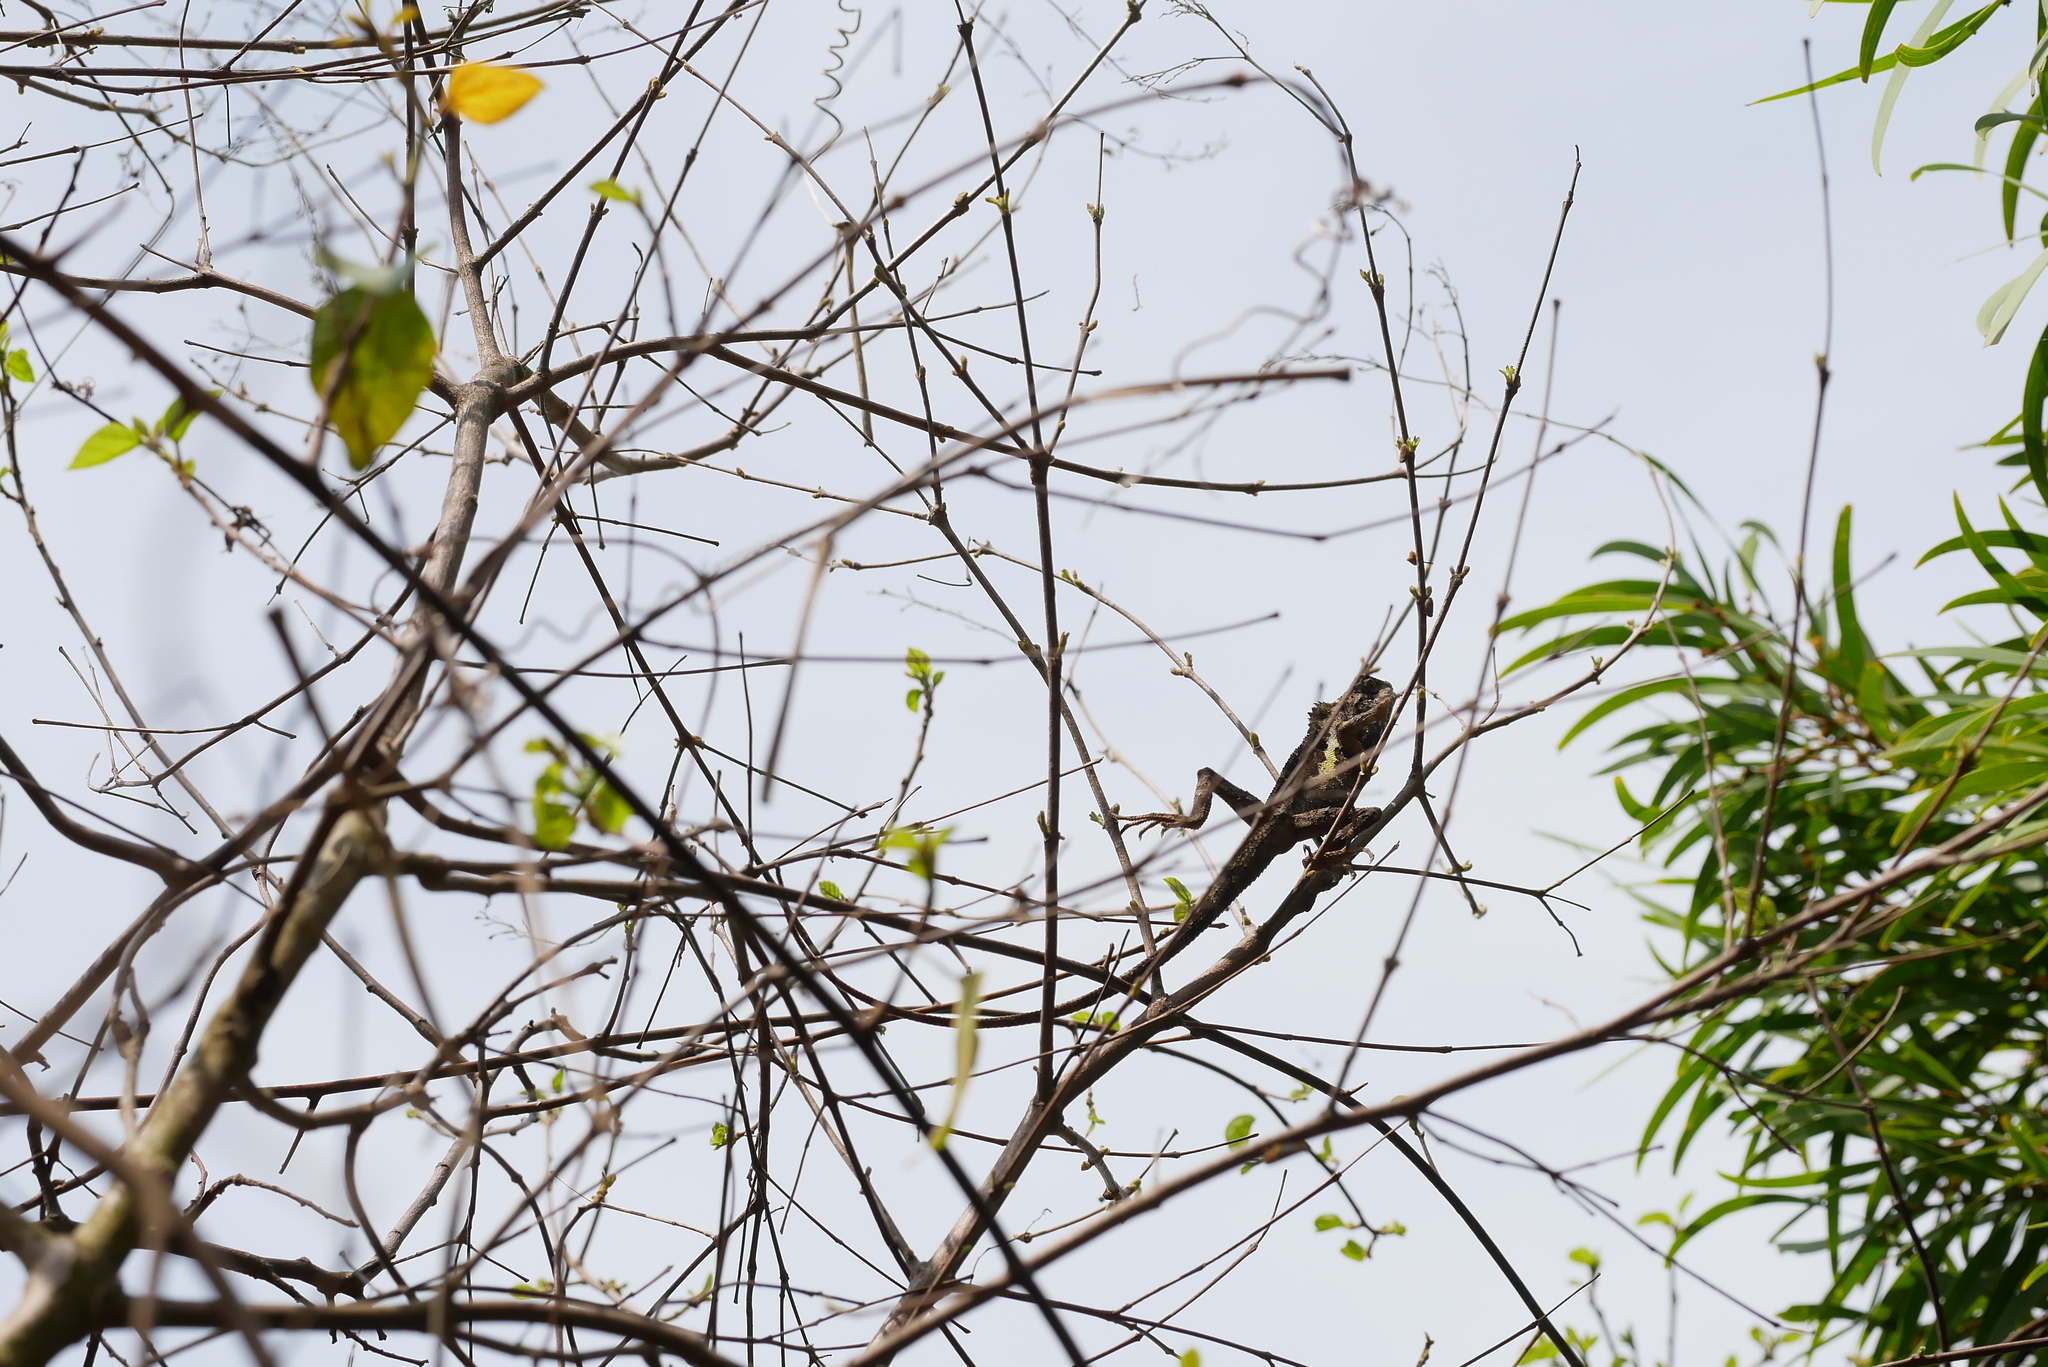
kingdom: Animalia
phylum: Chordata
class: Squamata
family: Agamidae
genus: Diploderma
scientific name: Diploderma swinhonis
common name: Taiwan japalure
